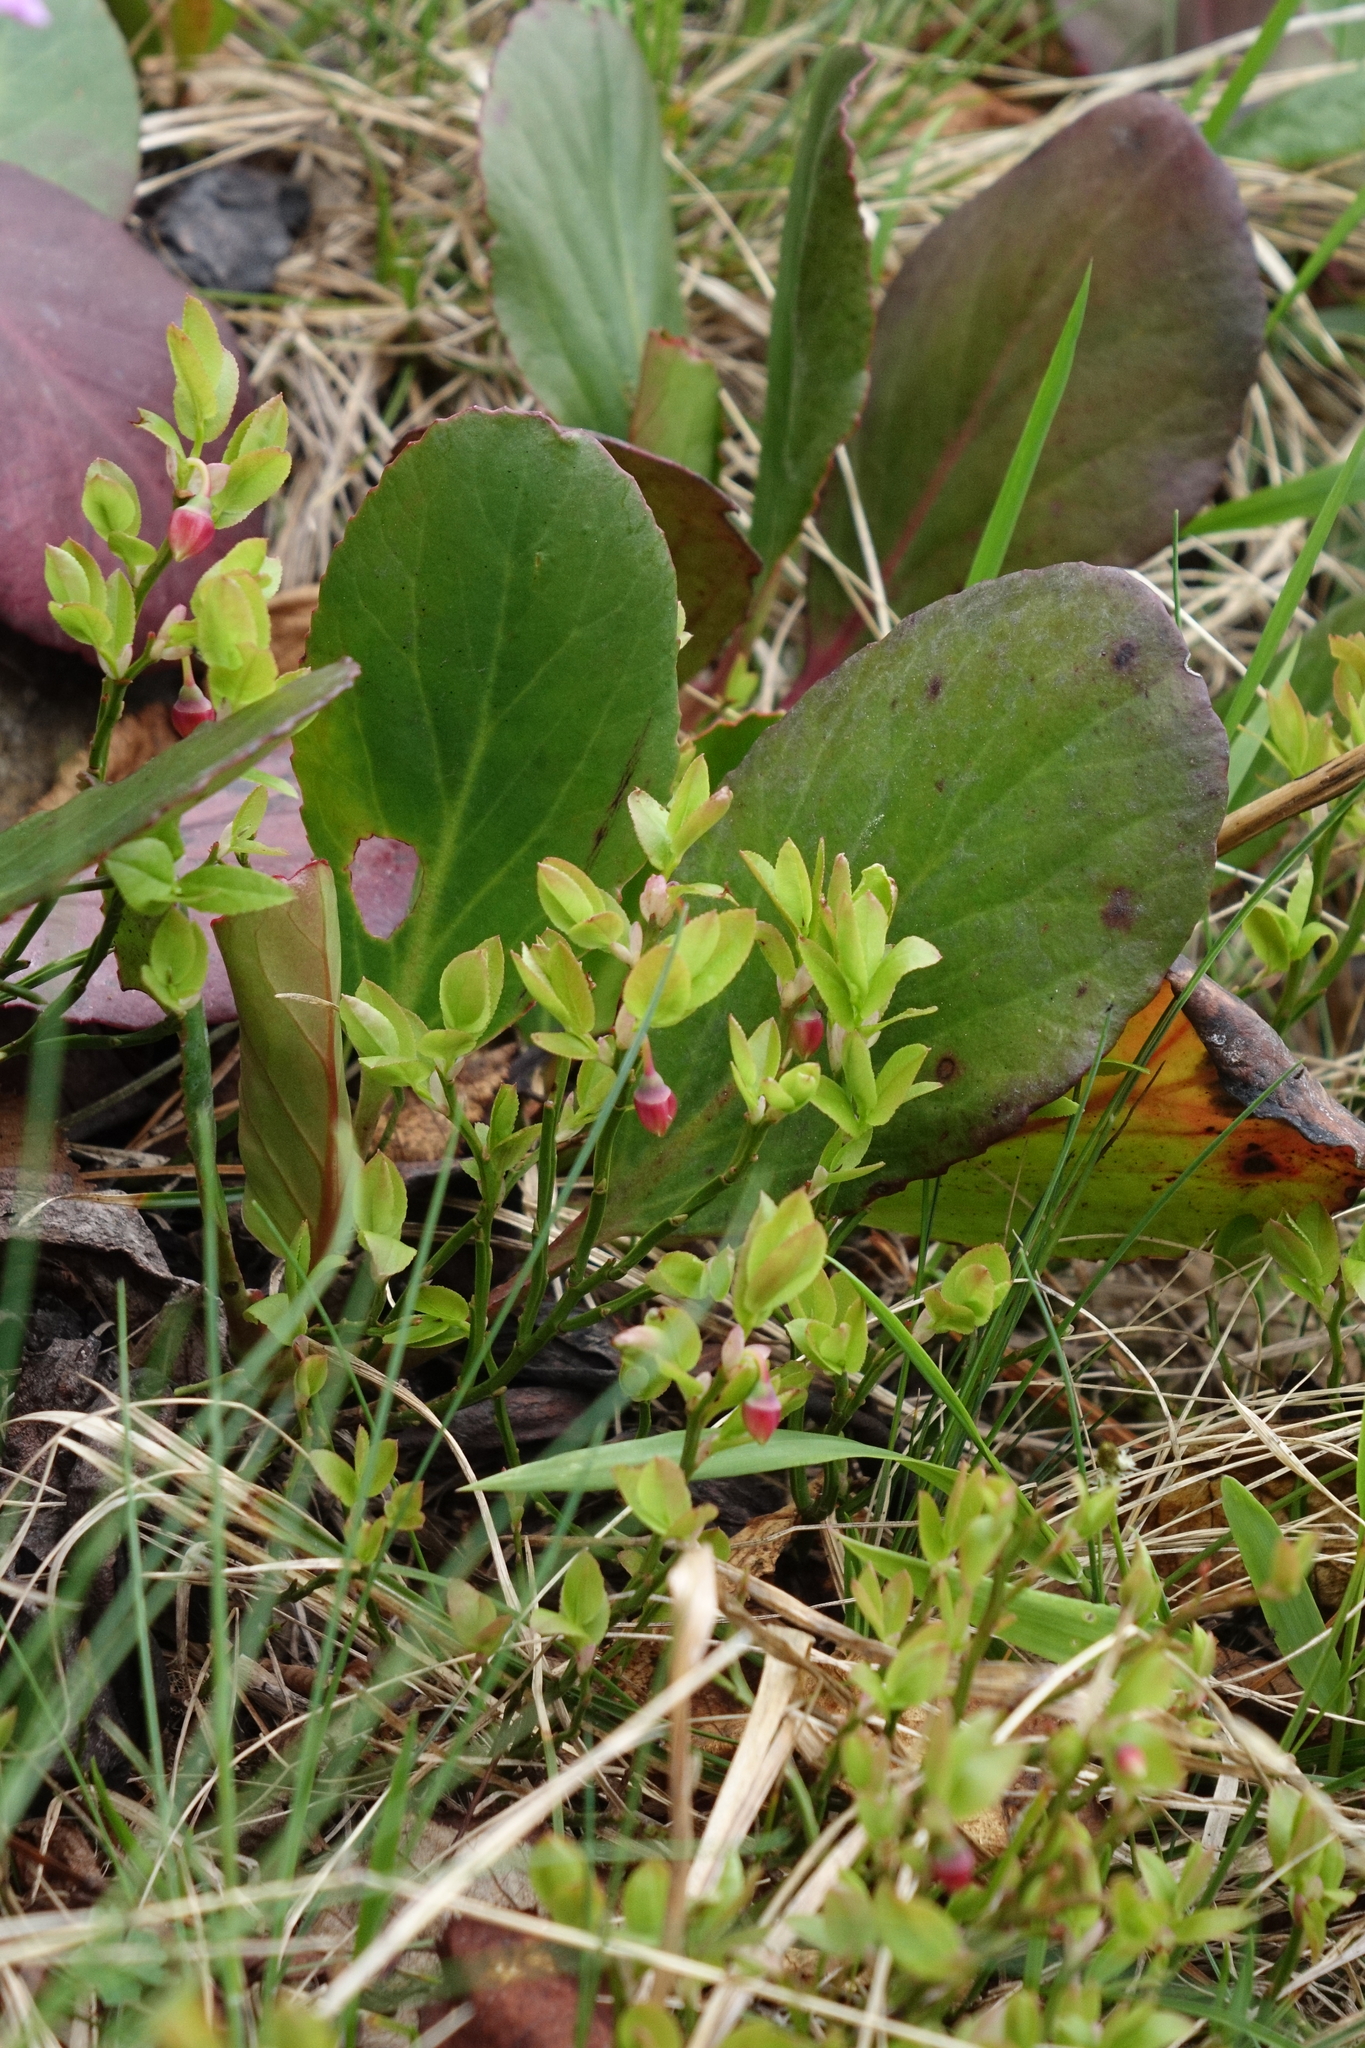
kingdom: Plantae
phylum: Tracheophyta
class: Magnoliopsida
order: Ericales
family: Ericaceae
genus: Vaccinium
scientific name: Vaccinium myrtillus
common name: Bilberry
